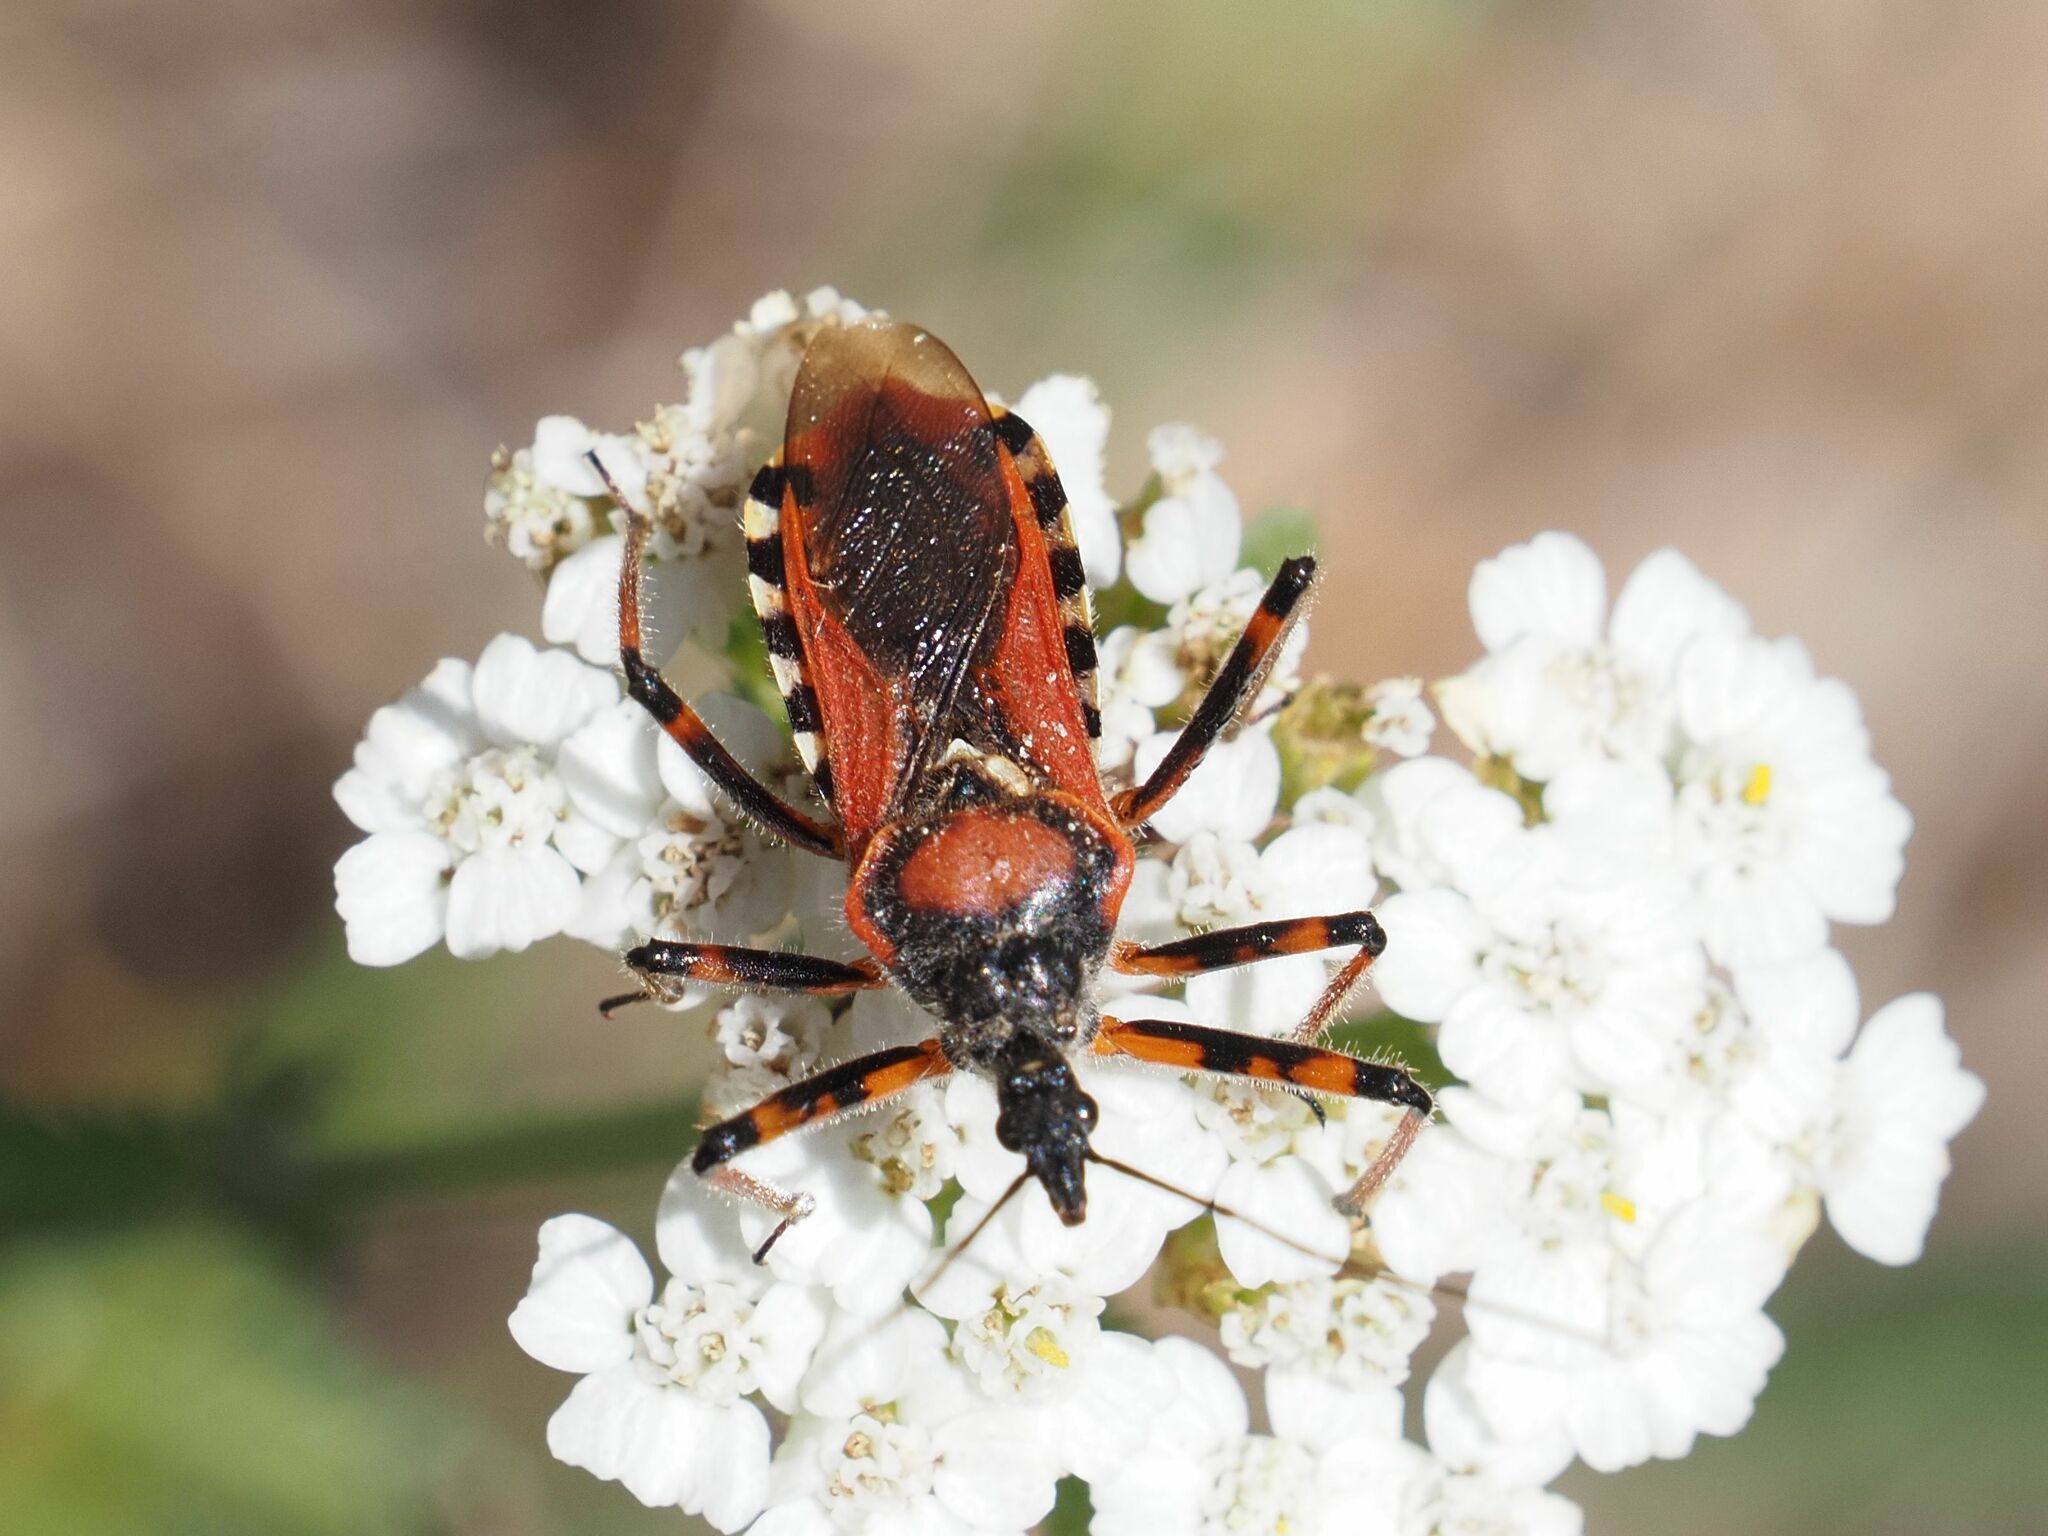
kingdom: Animalia
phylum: Arthropoda
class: Insecta
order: Hemiptera
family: Reduviidae
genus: Rhynocoris
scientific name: Rhynocoris iracundus
